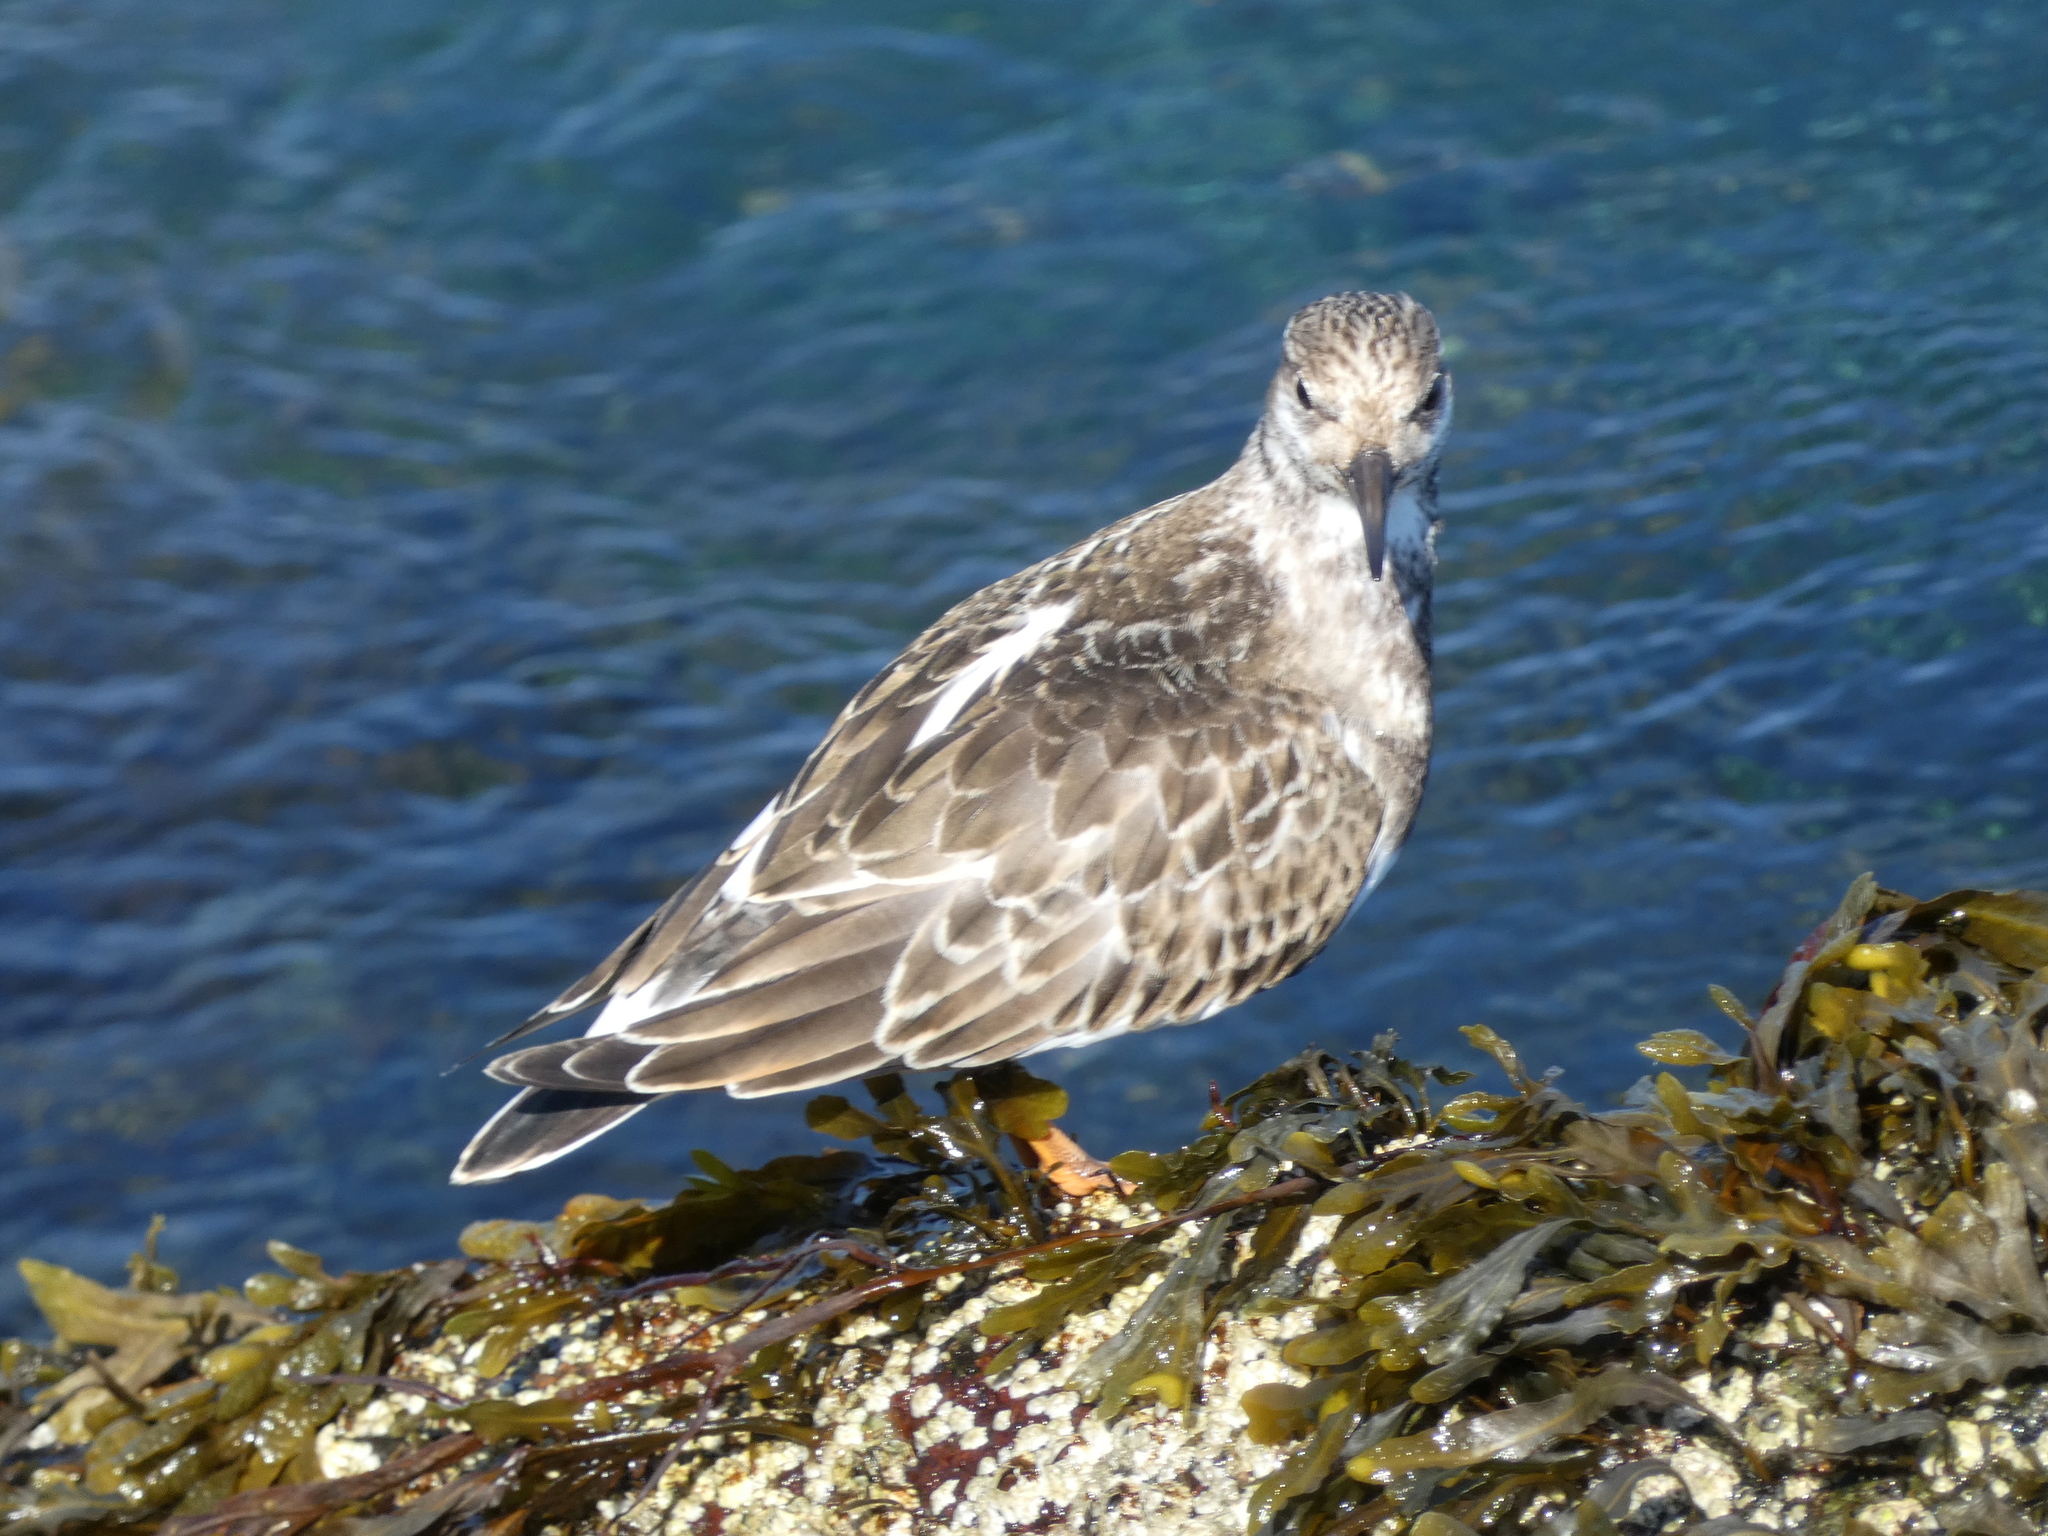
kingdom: Animalia
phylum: Chordata
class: Aves
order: Charadriiformes
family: Scolopacidae
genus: Arenaria
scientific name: Arenaria interpres
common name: Ruddy turnstone
